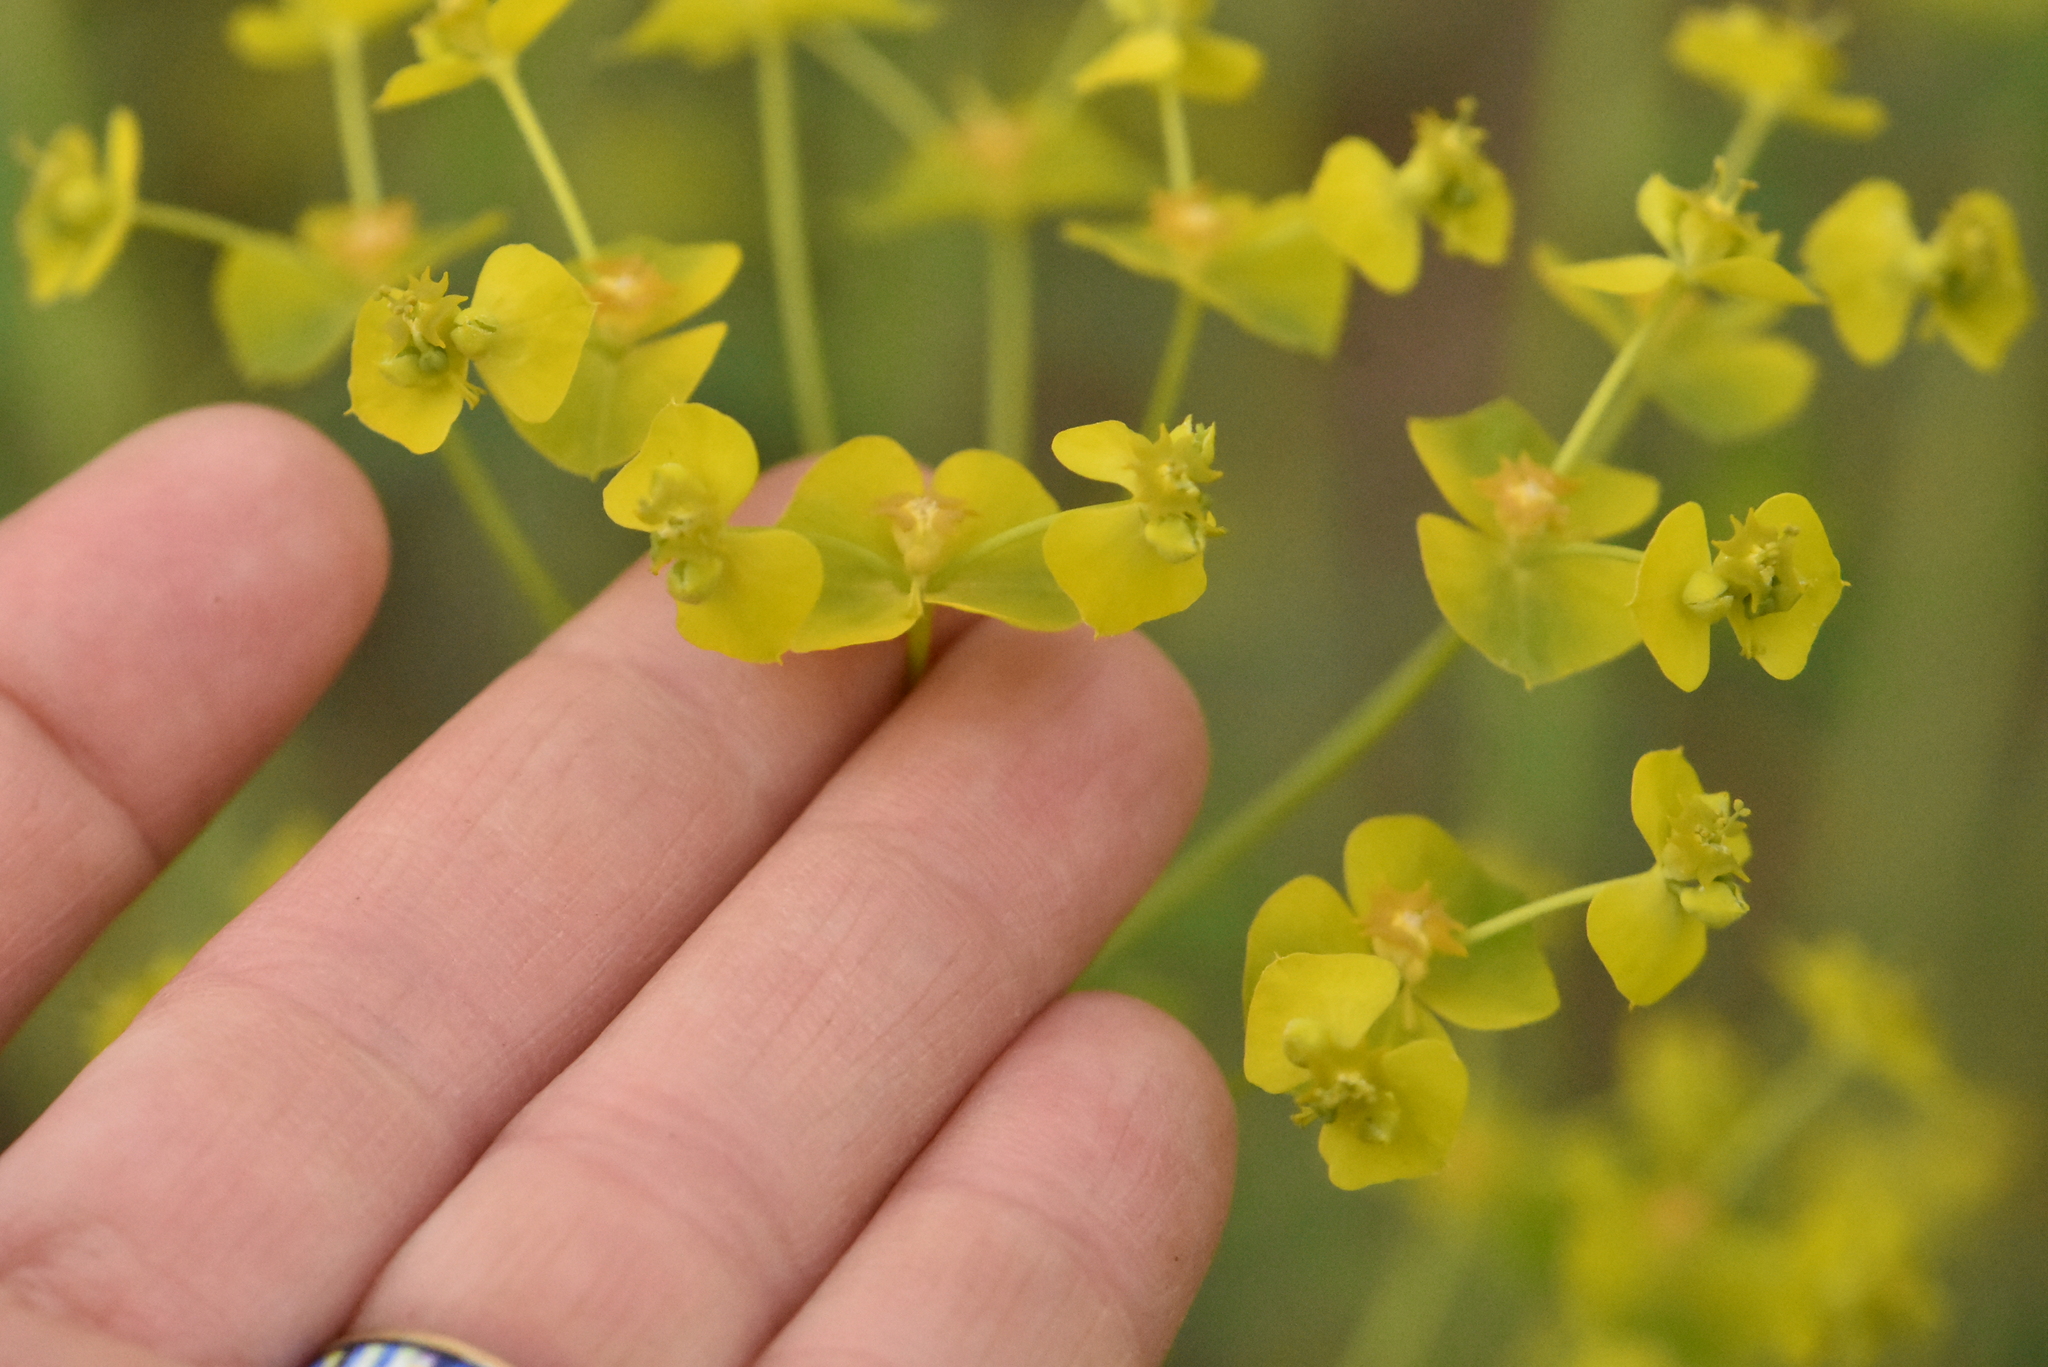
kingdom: Plantae
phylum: Tracheophyta
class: Magnoliopsida
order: Malpighiales
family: Euphorbiaceae
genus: Euphorbia
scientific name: Euphorbia virgata
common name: Leafy spurge
